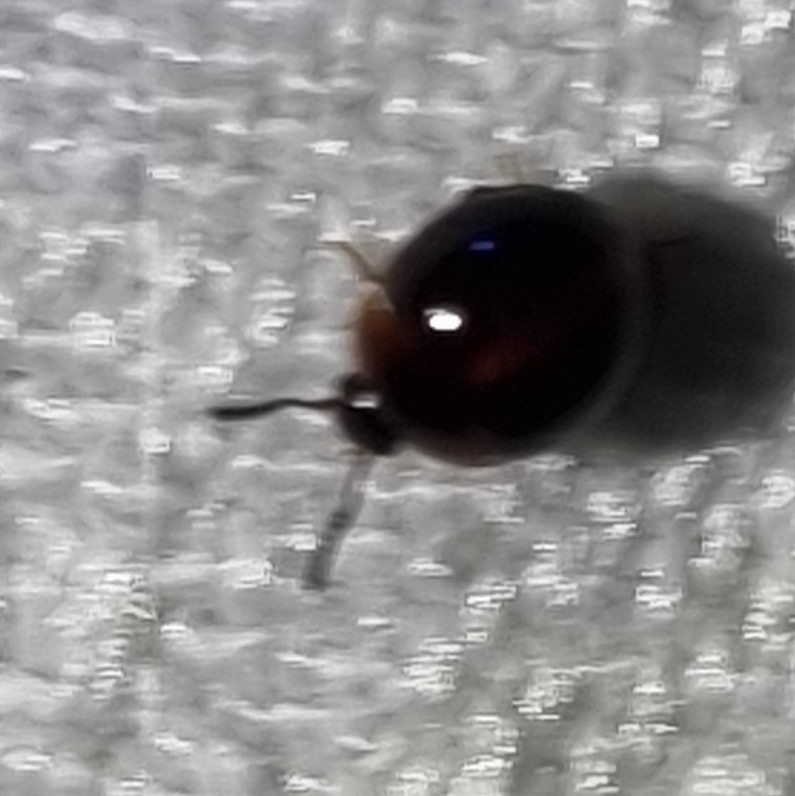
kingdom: Animalia
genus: Leiochrodes
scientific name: Leiochrodes
